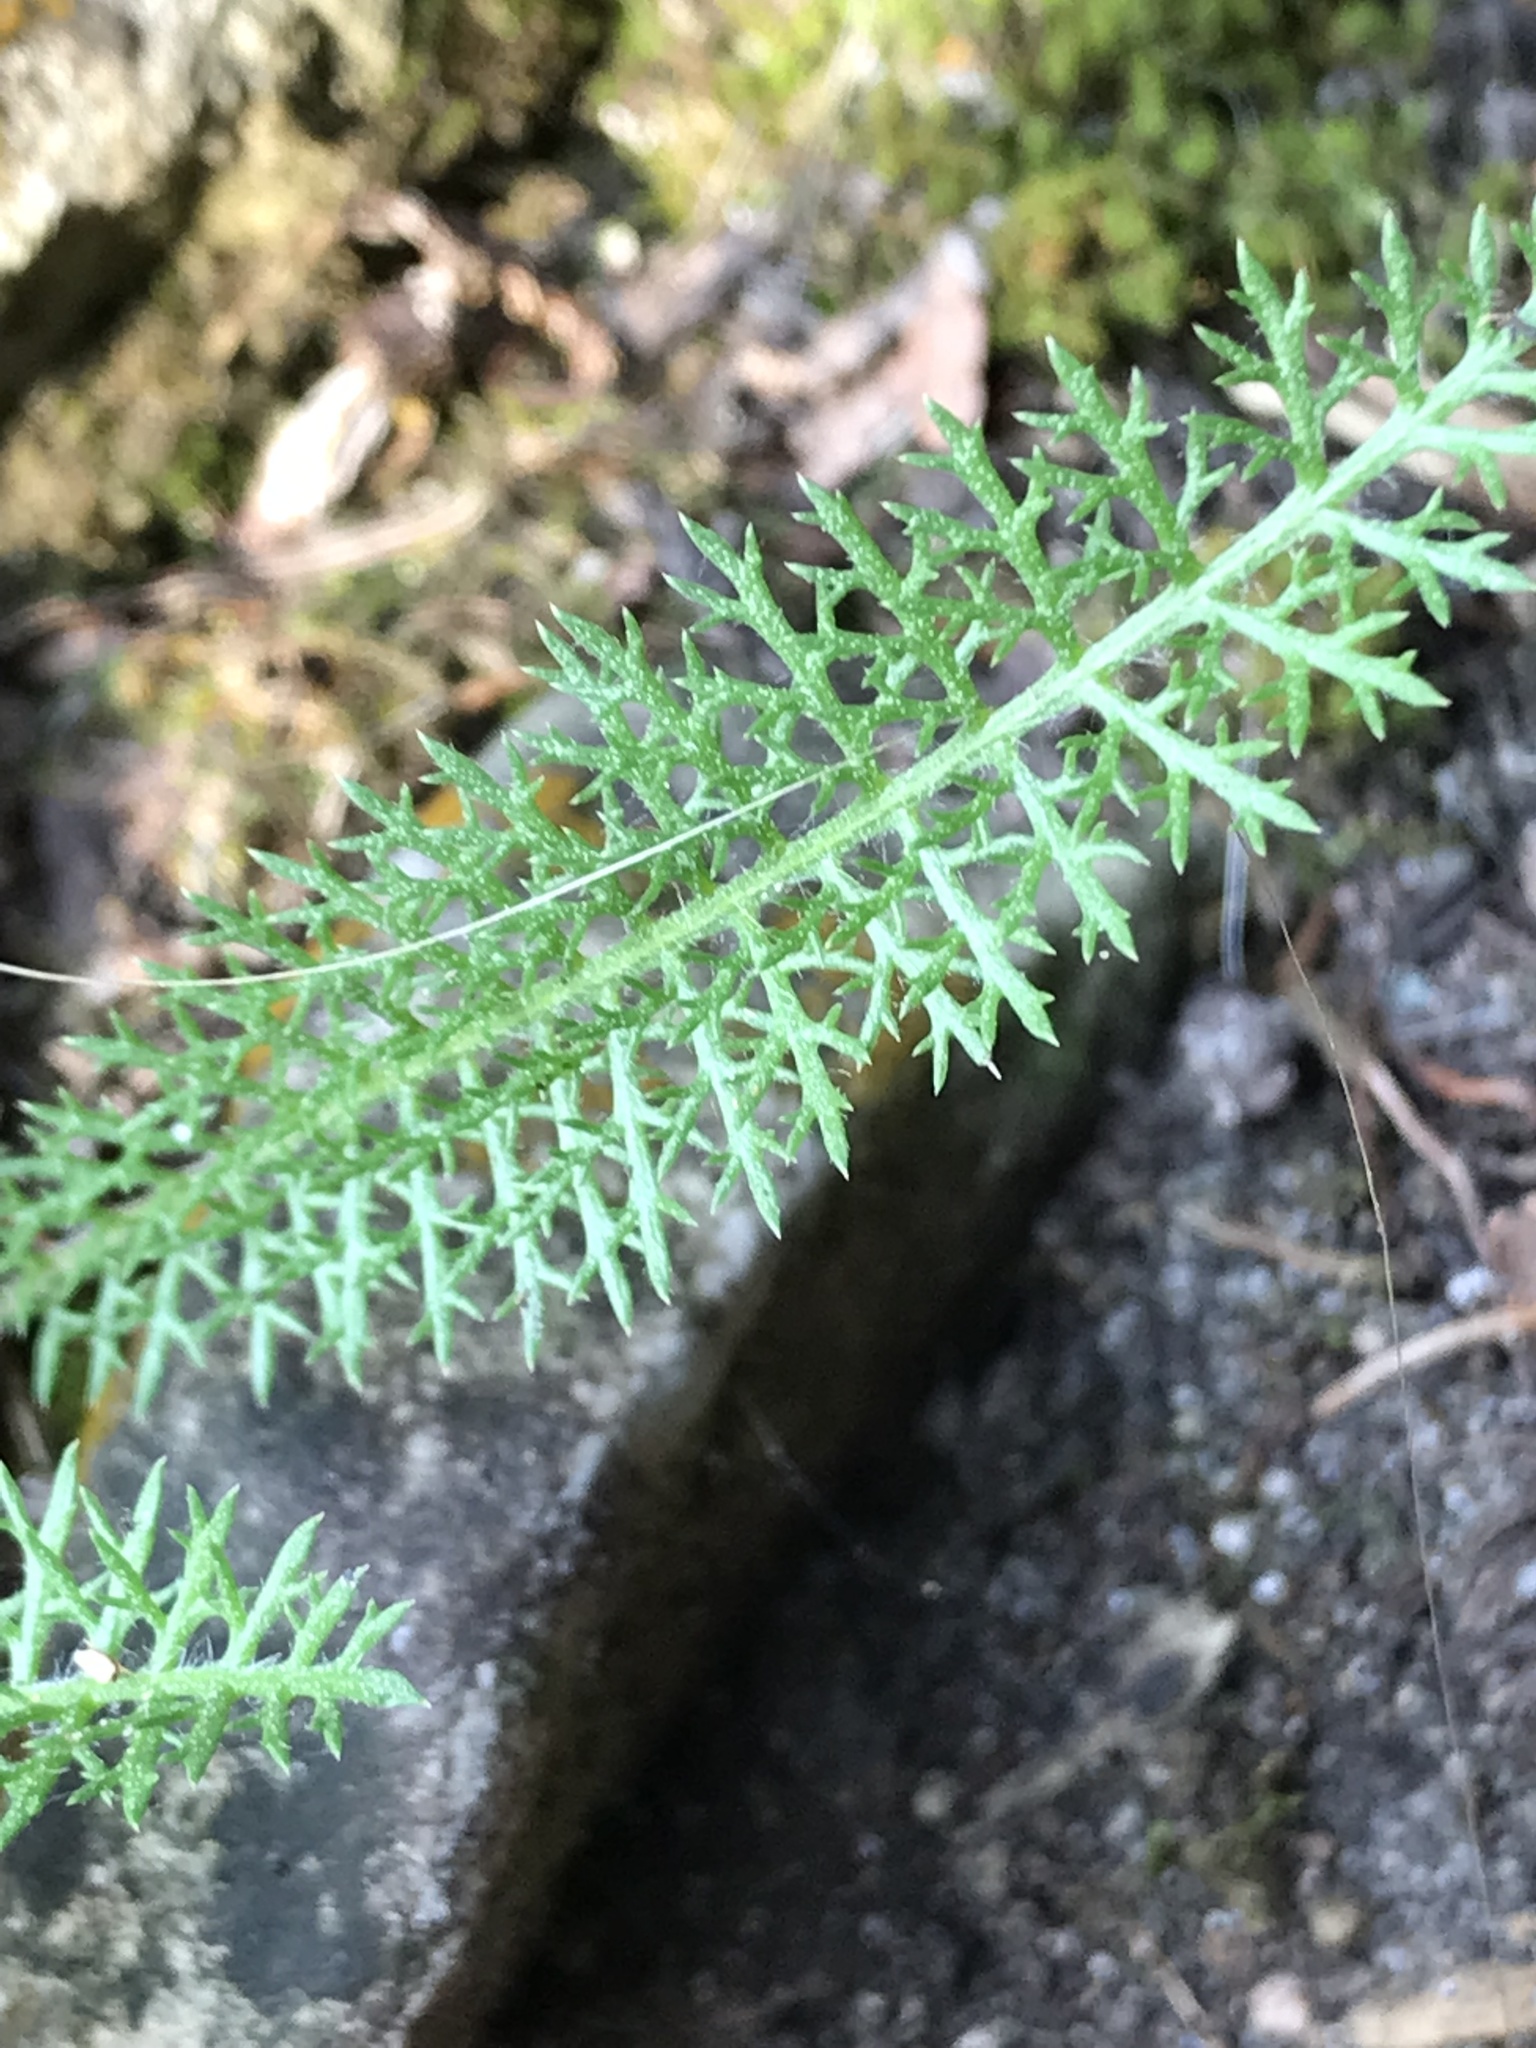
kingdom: Plantae
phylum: Tracheophyta
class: Magnoliopsida
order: Asterales
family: Asteraceae
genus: Achillea
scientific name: Achillea millefolium
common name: Yarrow
